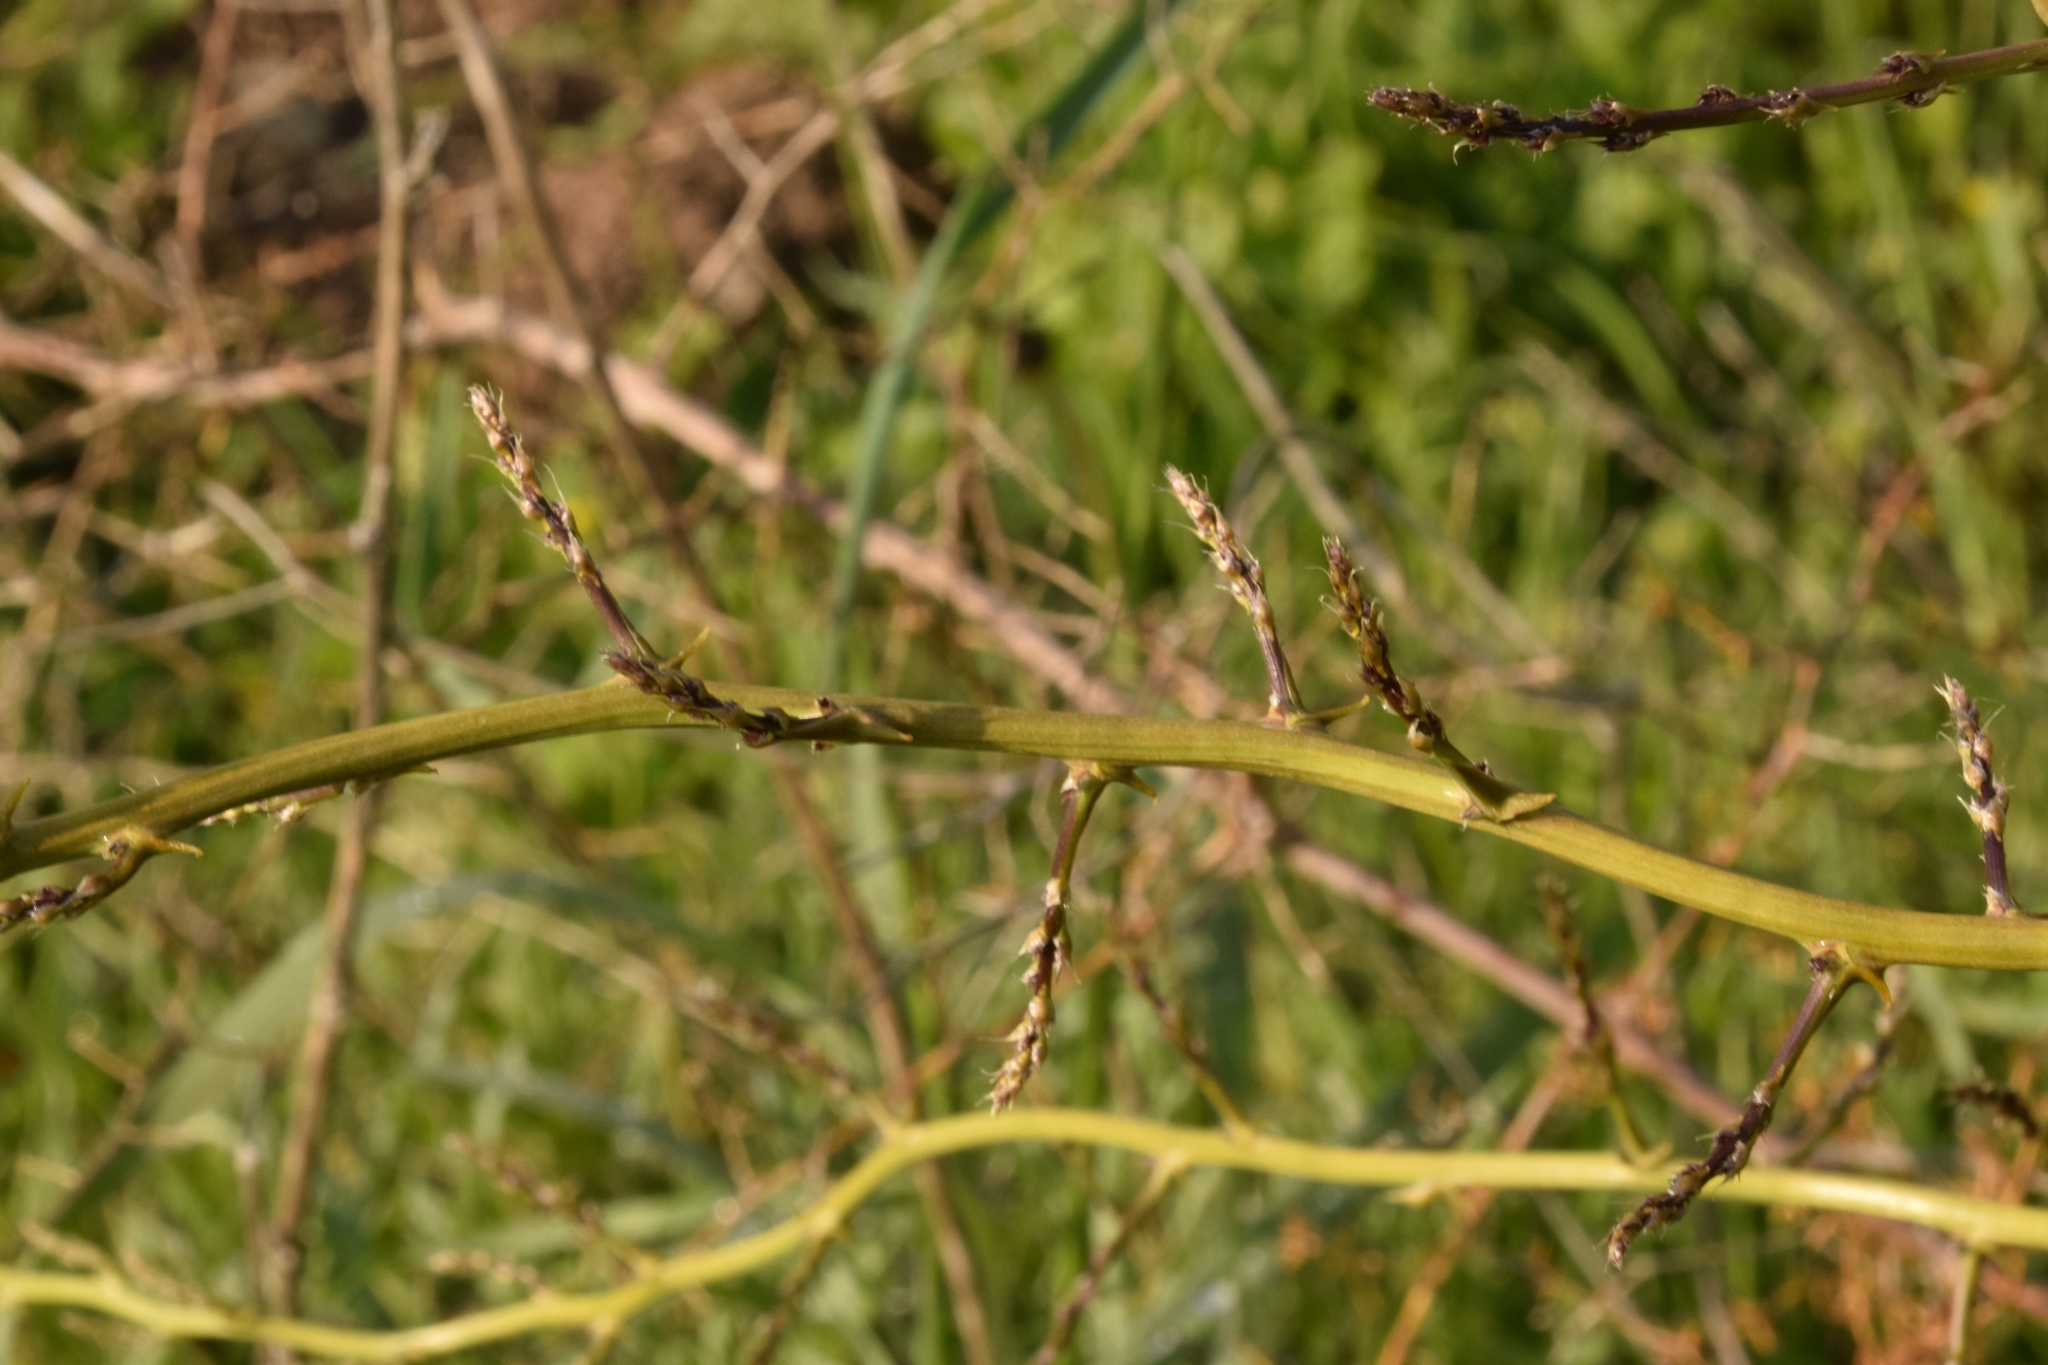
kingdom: Plantae
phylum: Tracheophyta
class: Liliopsida
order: Asparagales
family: Asparagaceae
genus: Asparagus
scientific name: Asparagus aphyllus
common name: Mediterranean asparagus
